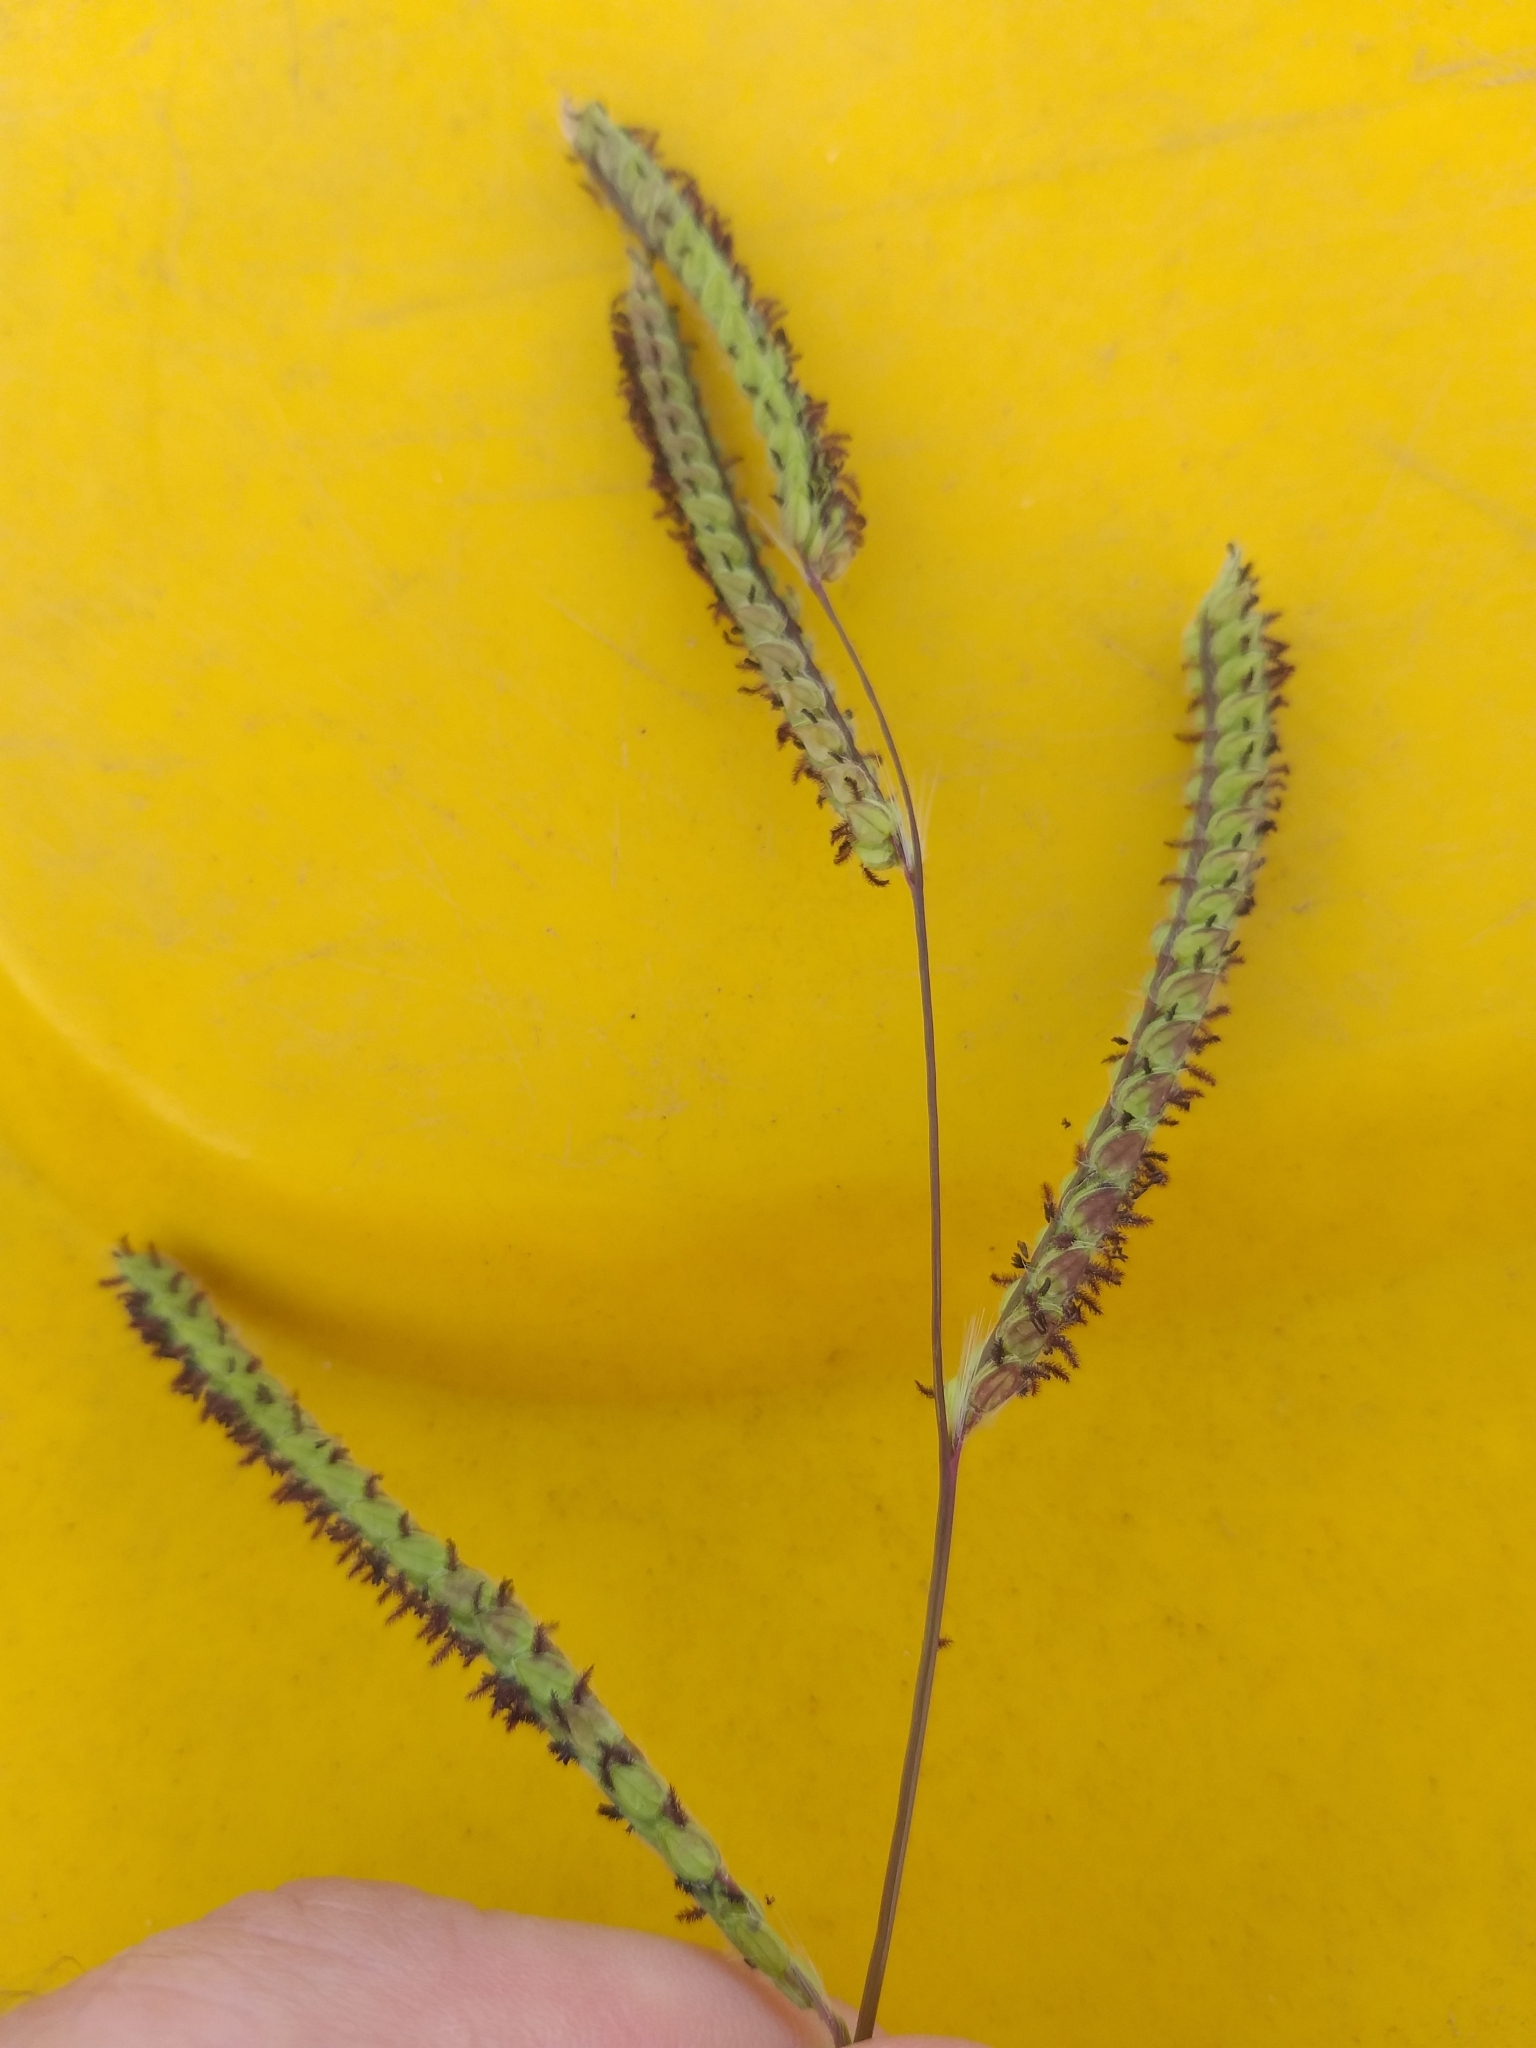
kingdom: Plantae
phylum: Tracheophyta
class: Liliopsida
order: Poales
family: Poaceae
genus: Paspalum
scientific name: Paspalum dilatatum
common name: Dallisgrass
